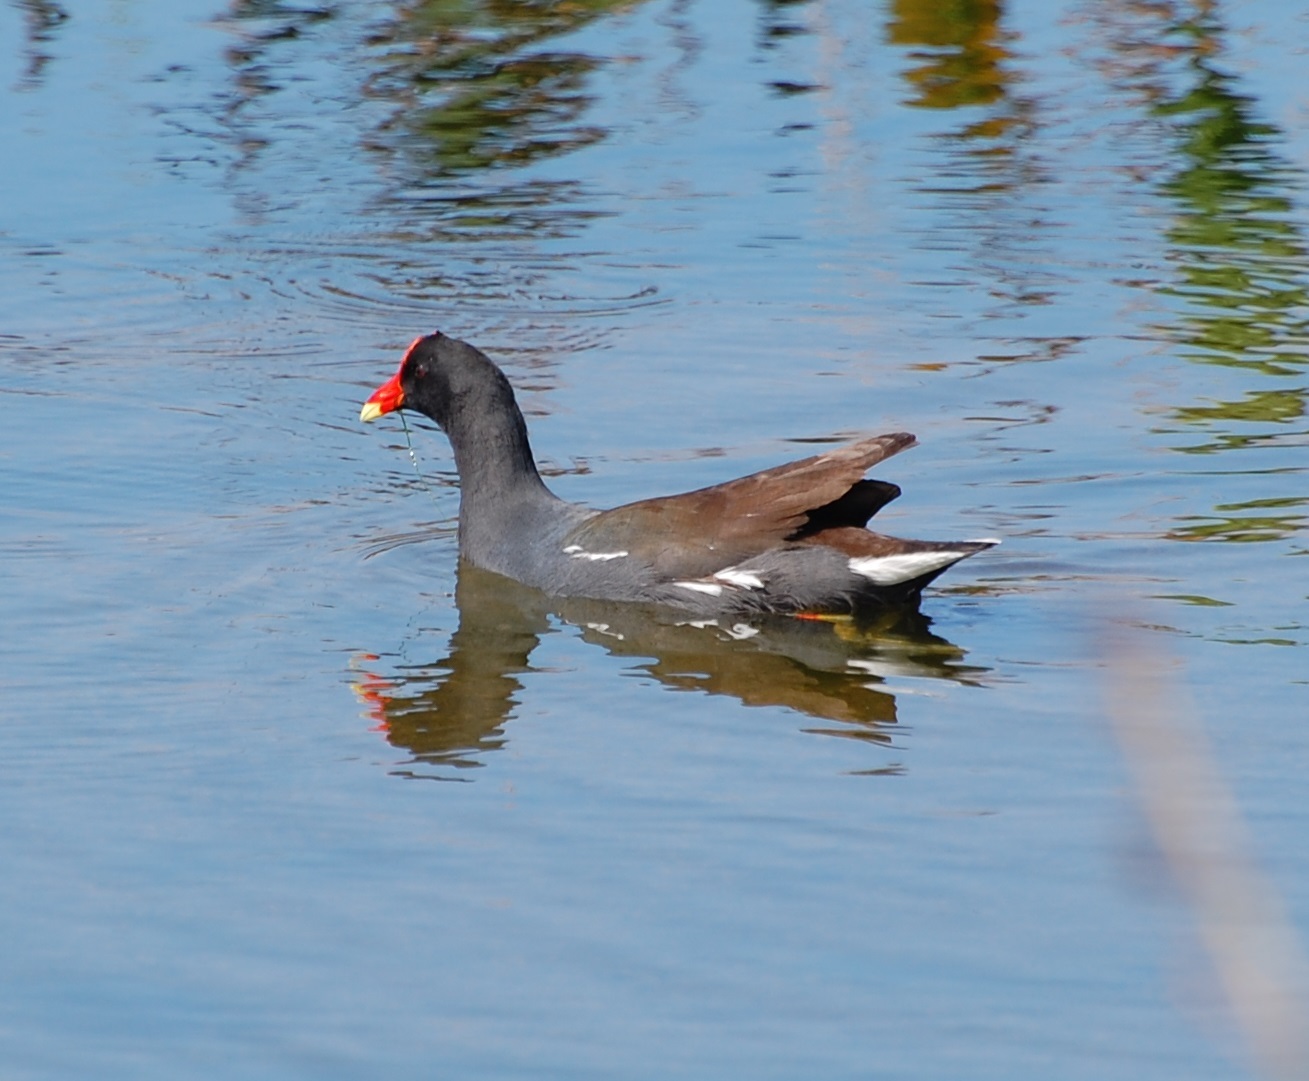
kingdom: Animalia
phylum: Chordata
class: Aves
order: Gruiformes
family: Rallidae
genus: Gallinula
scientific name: Gallinula chloropus
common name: Common moorhen
